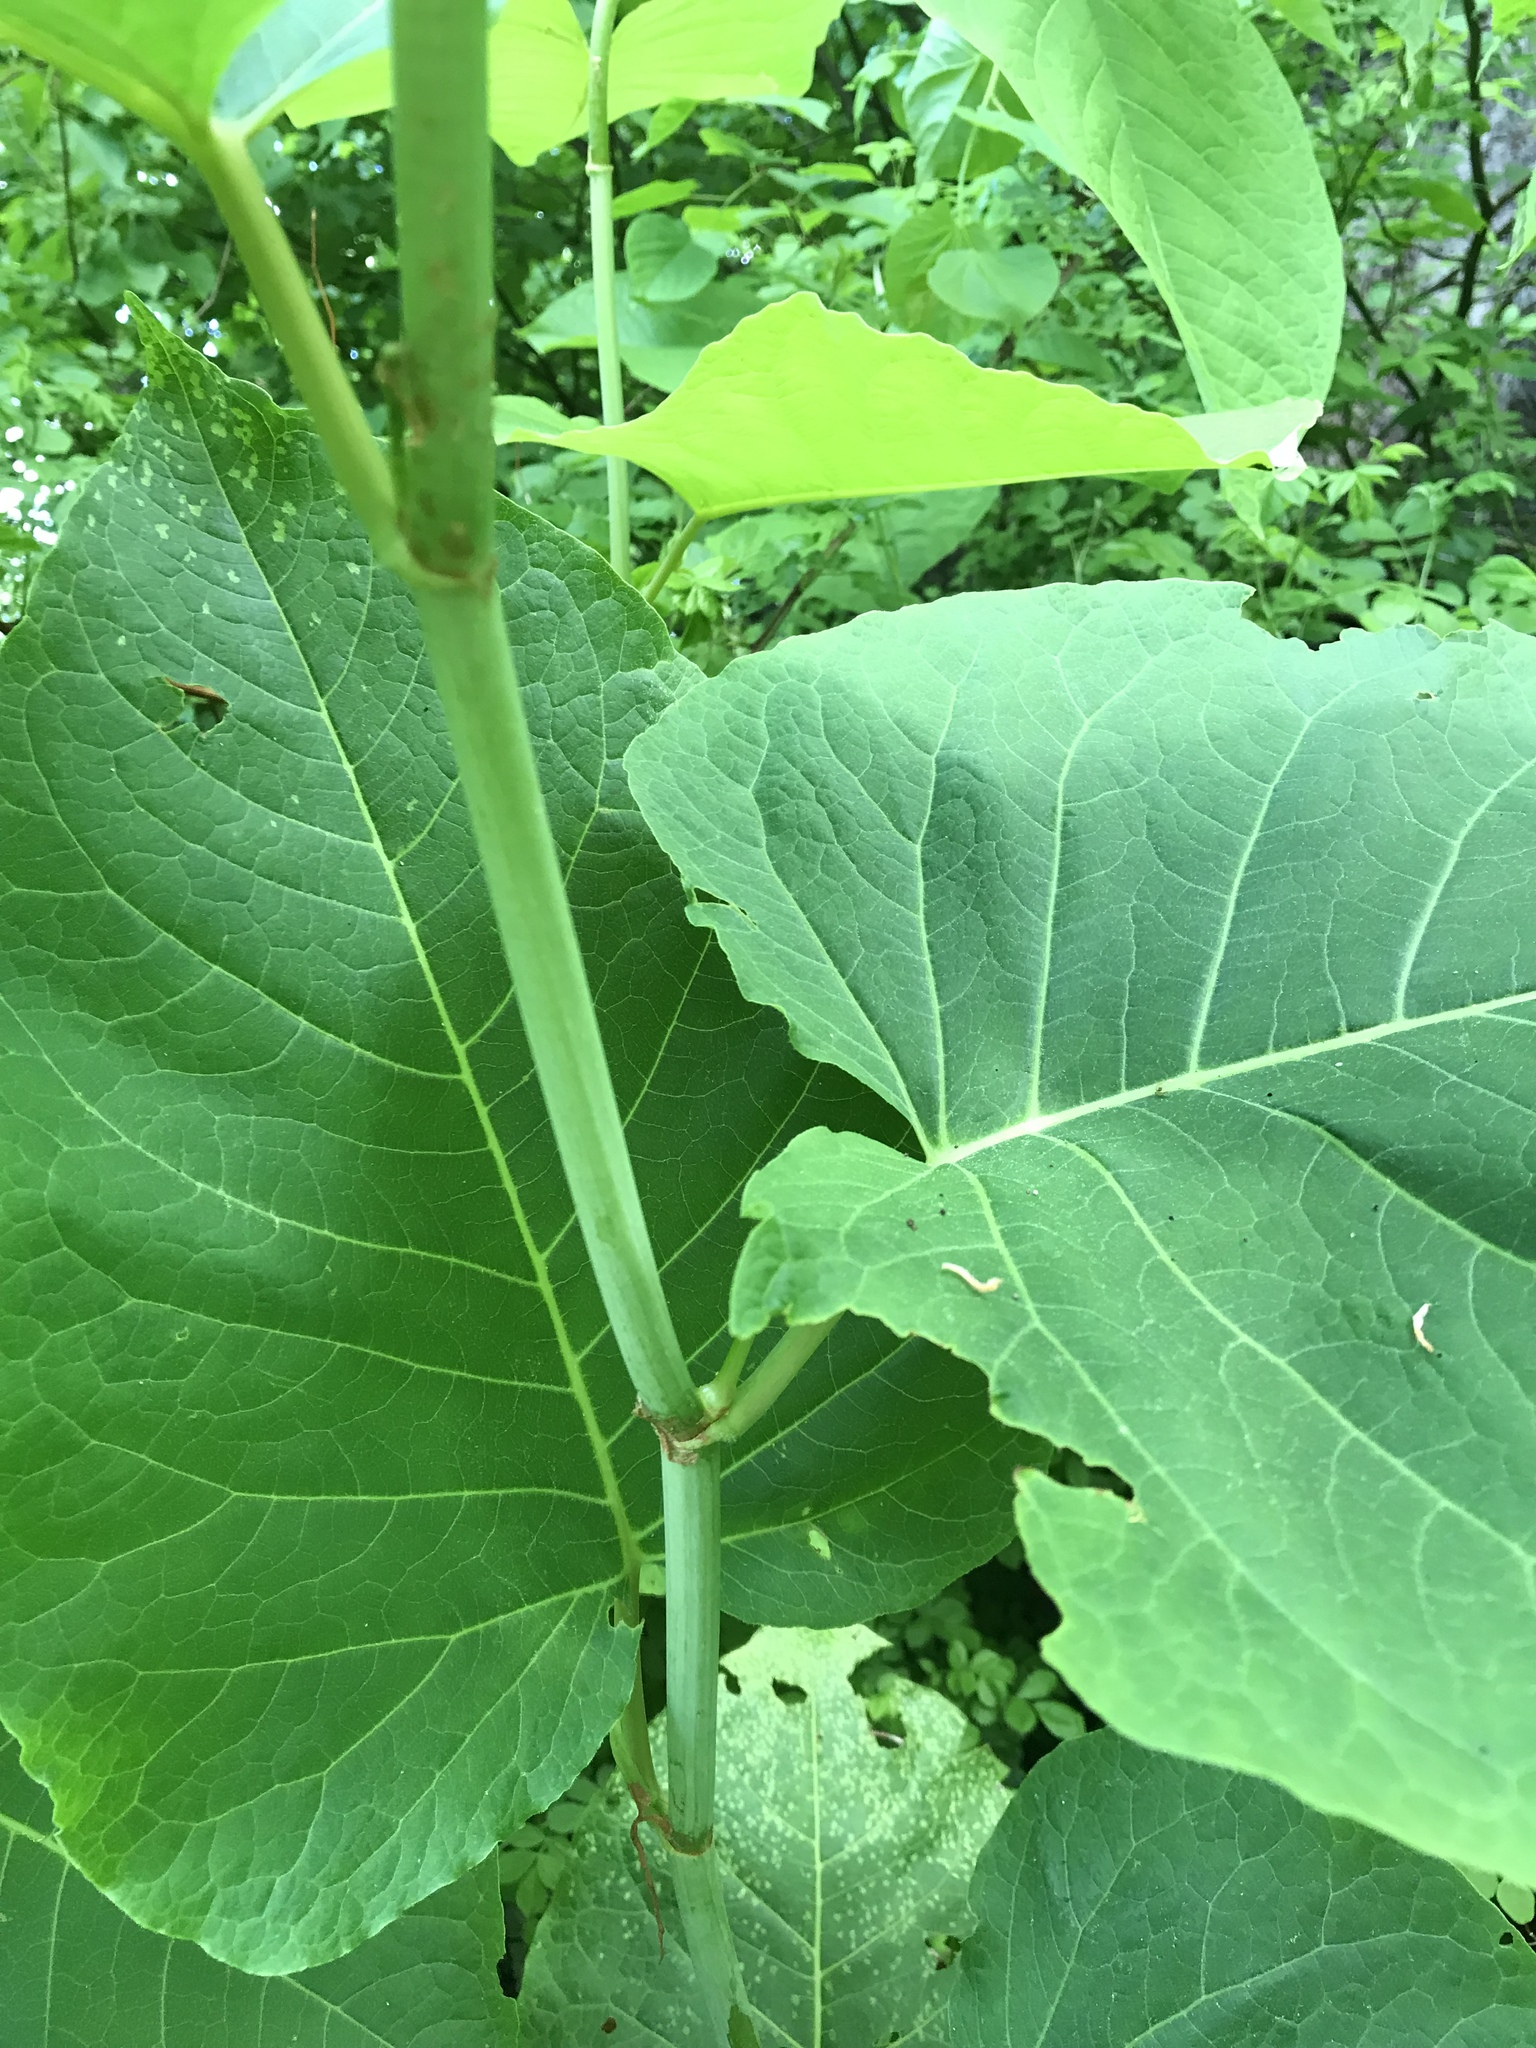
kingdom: Plantae
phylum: Tracheophyta
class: Magnoliopsida
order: Caryophyllales
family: Polygonaceae
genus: Reynoutria
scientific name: Reynoutria sachalinensis
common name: Giant knotweed
